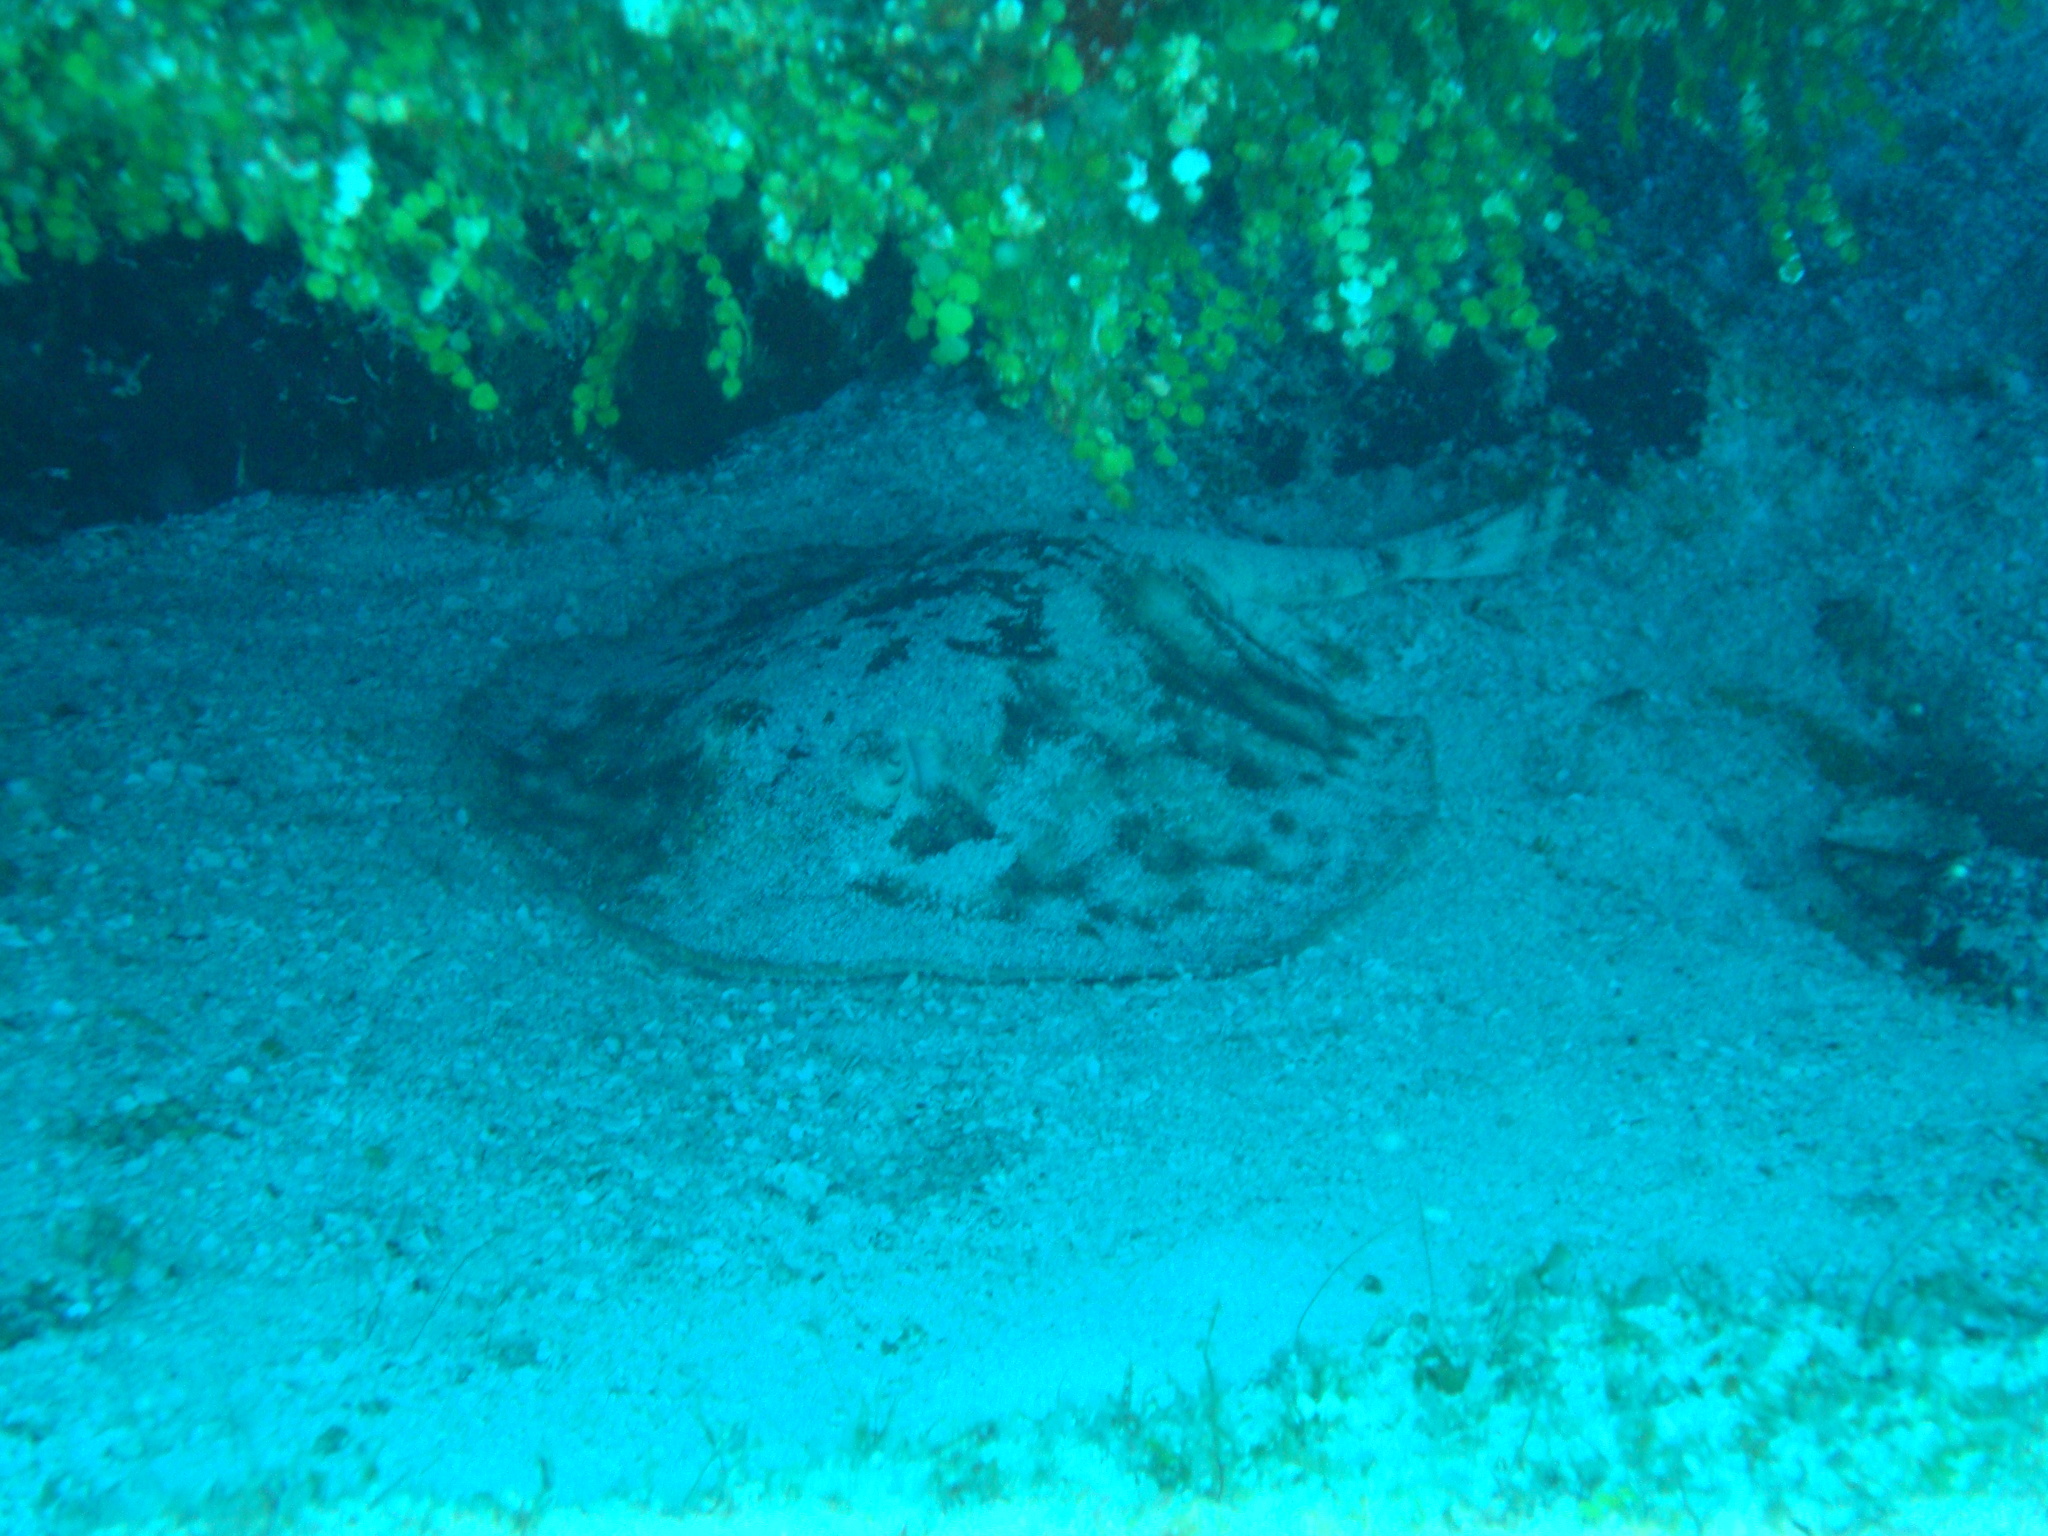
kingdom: Animalia
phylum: Chordata
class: Elasmobranchii
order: Myliobatiformes
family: Urotrygonidae
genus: Urobatis
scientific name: Urobatis jamaicensis
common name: Yellow stingray
